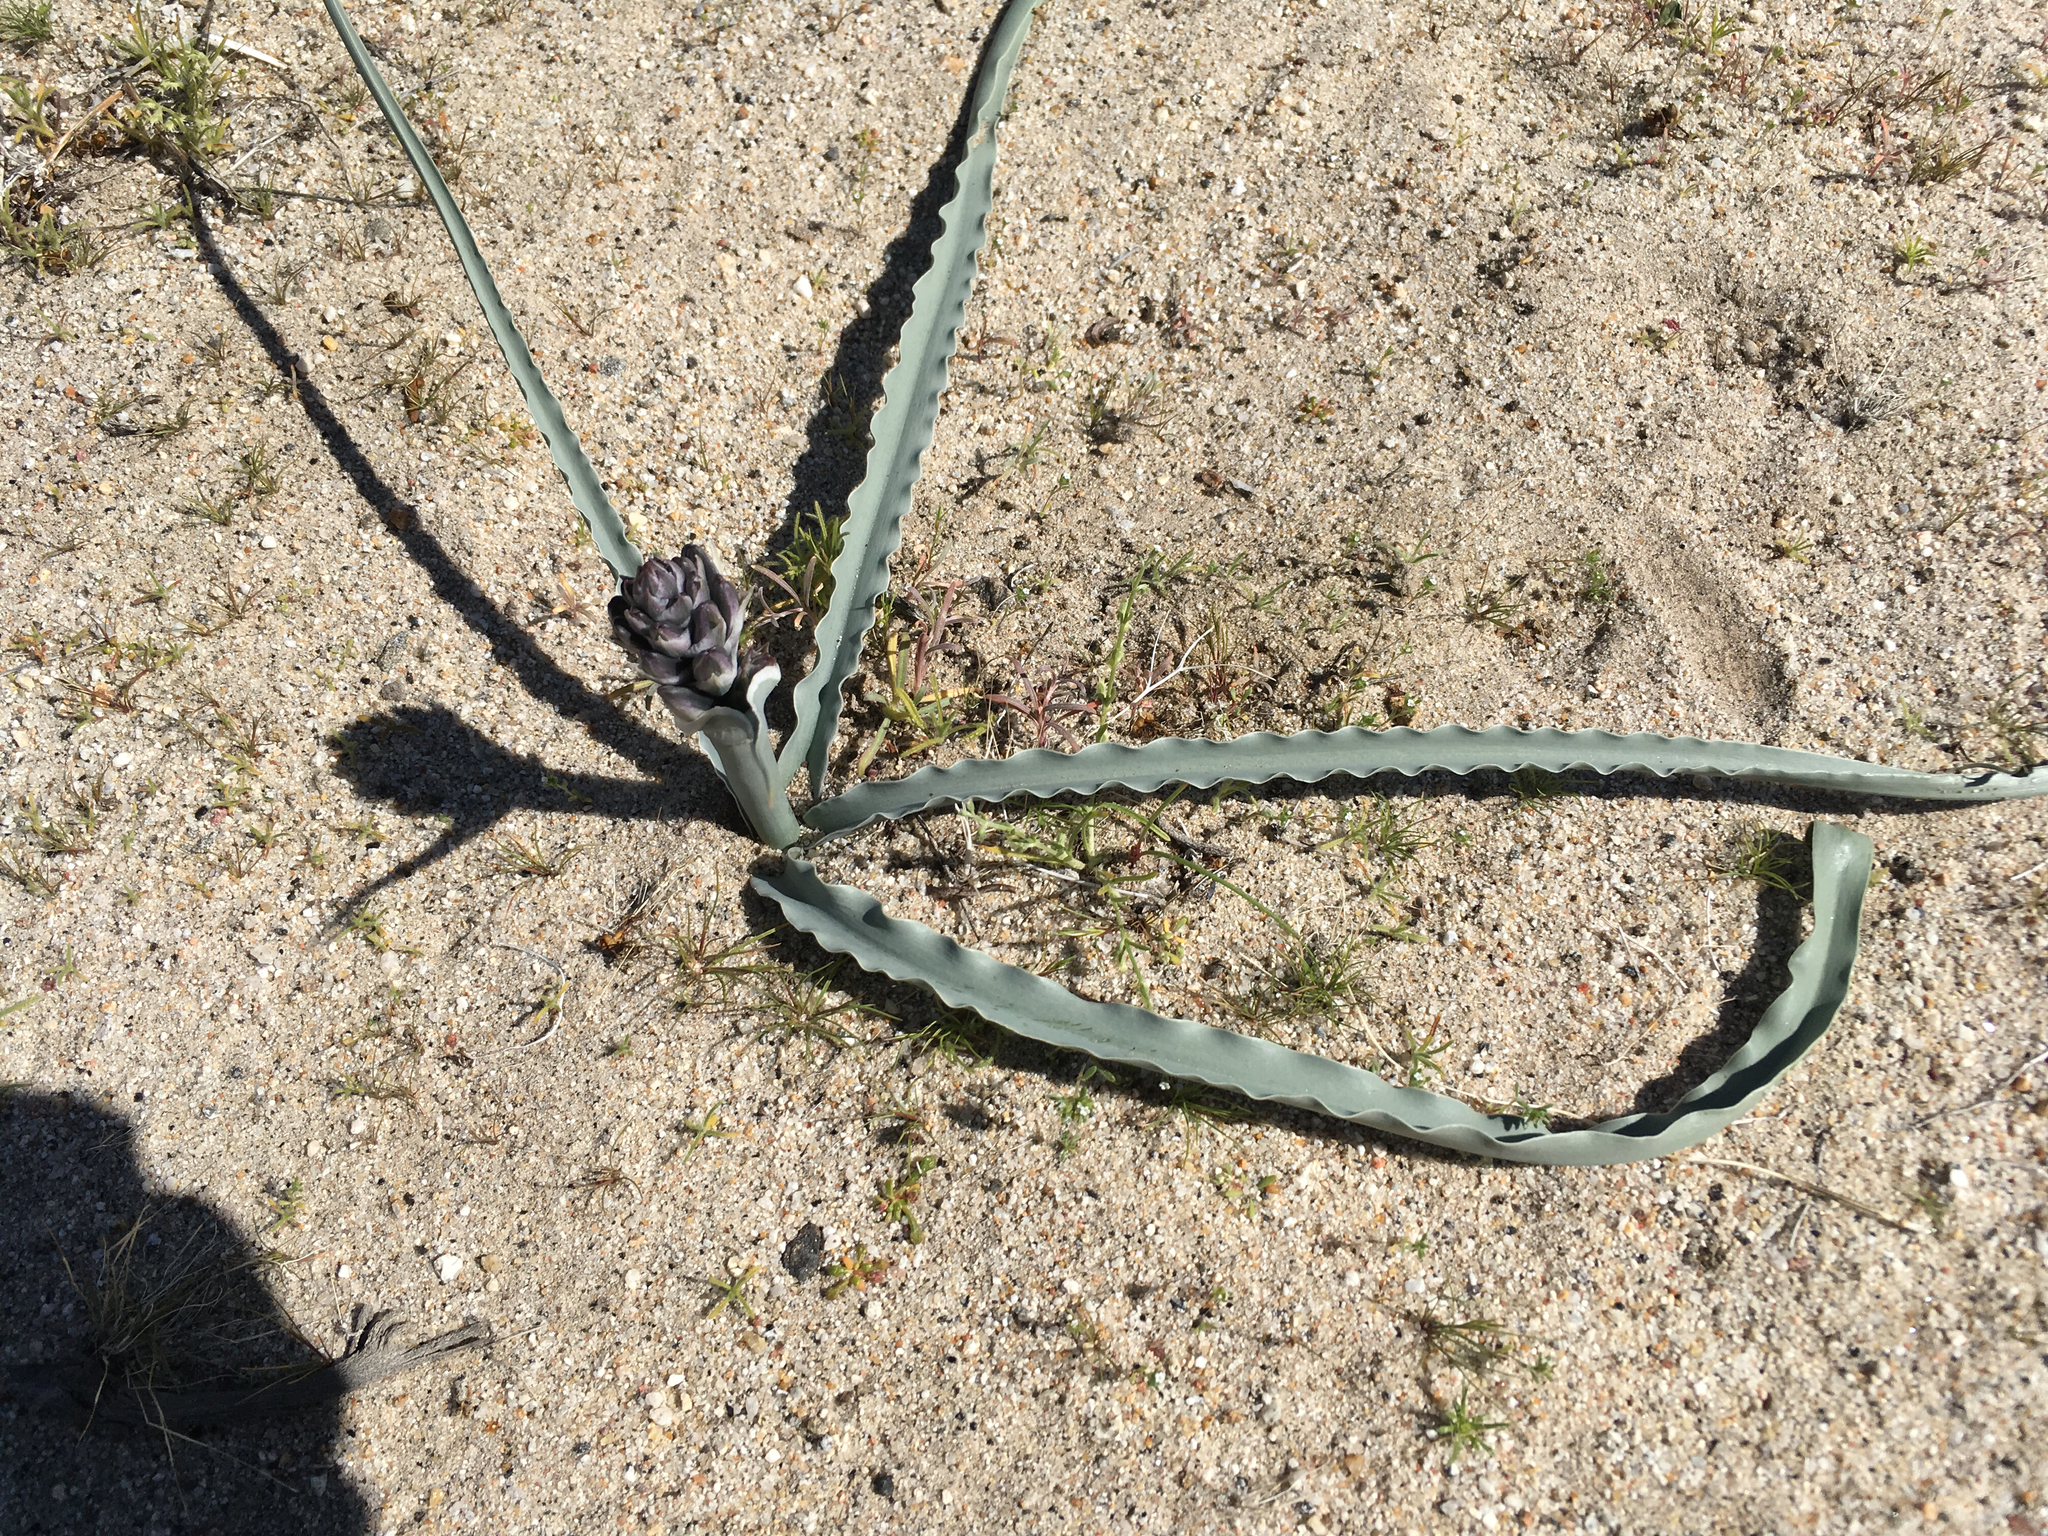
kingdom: Plantae
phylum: Tracheophyta
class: Liliopsida
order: Asparagales
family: Asparagaceae
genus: Hesperocallis
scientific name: Hesperocallis undulata
